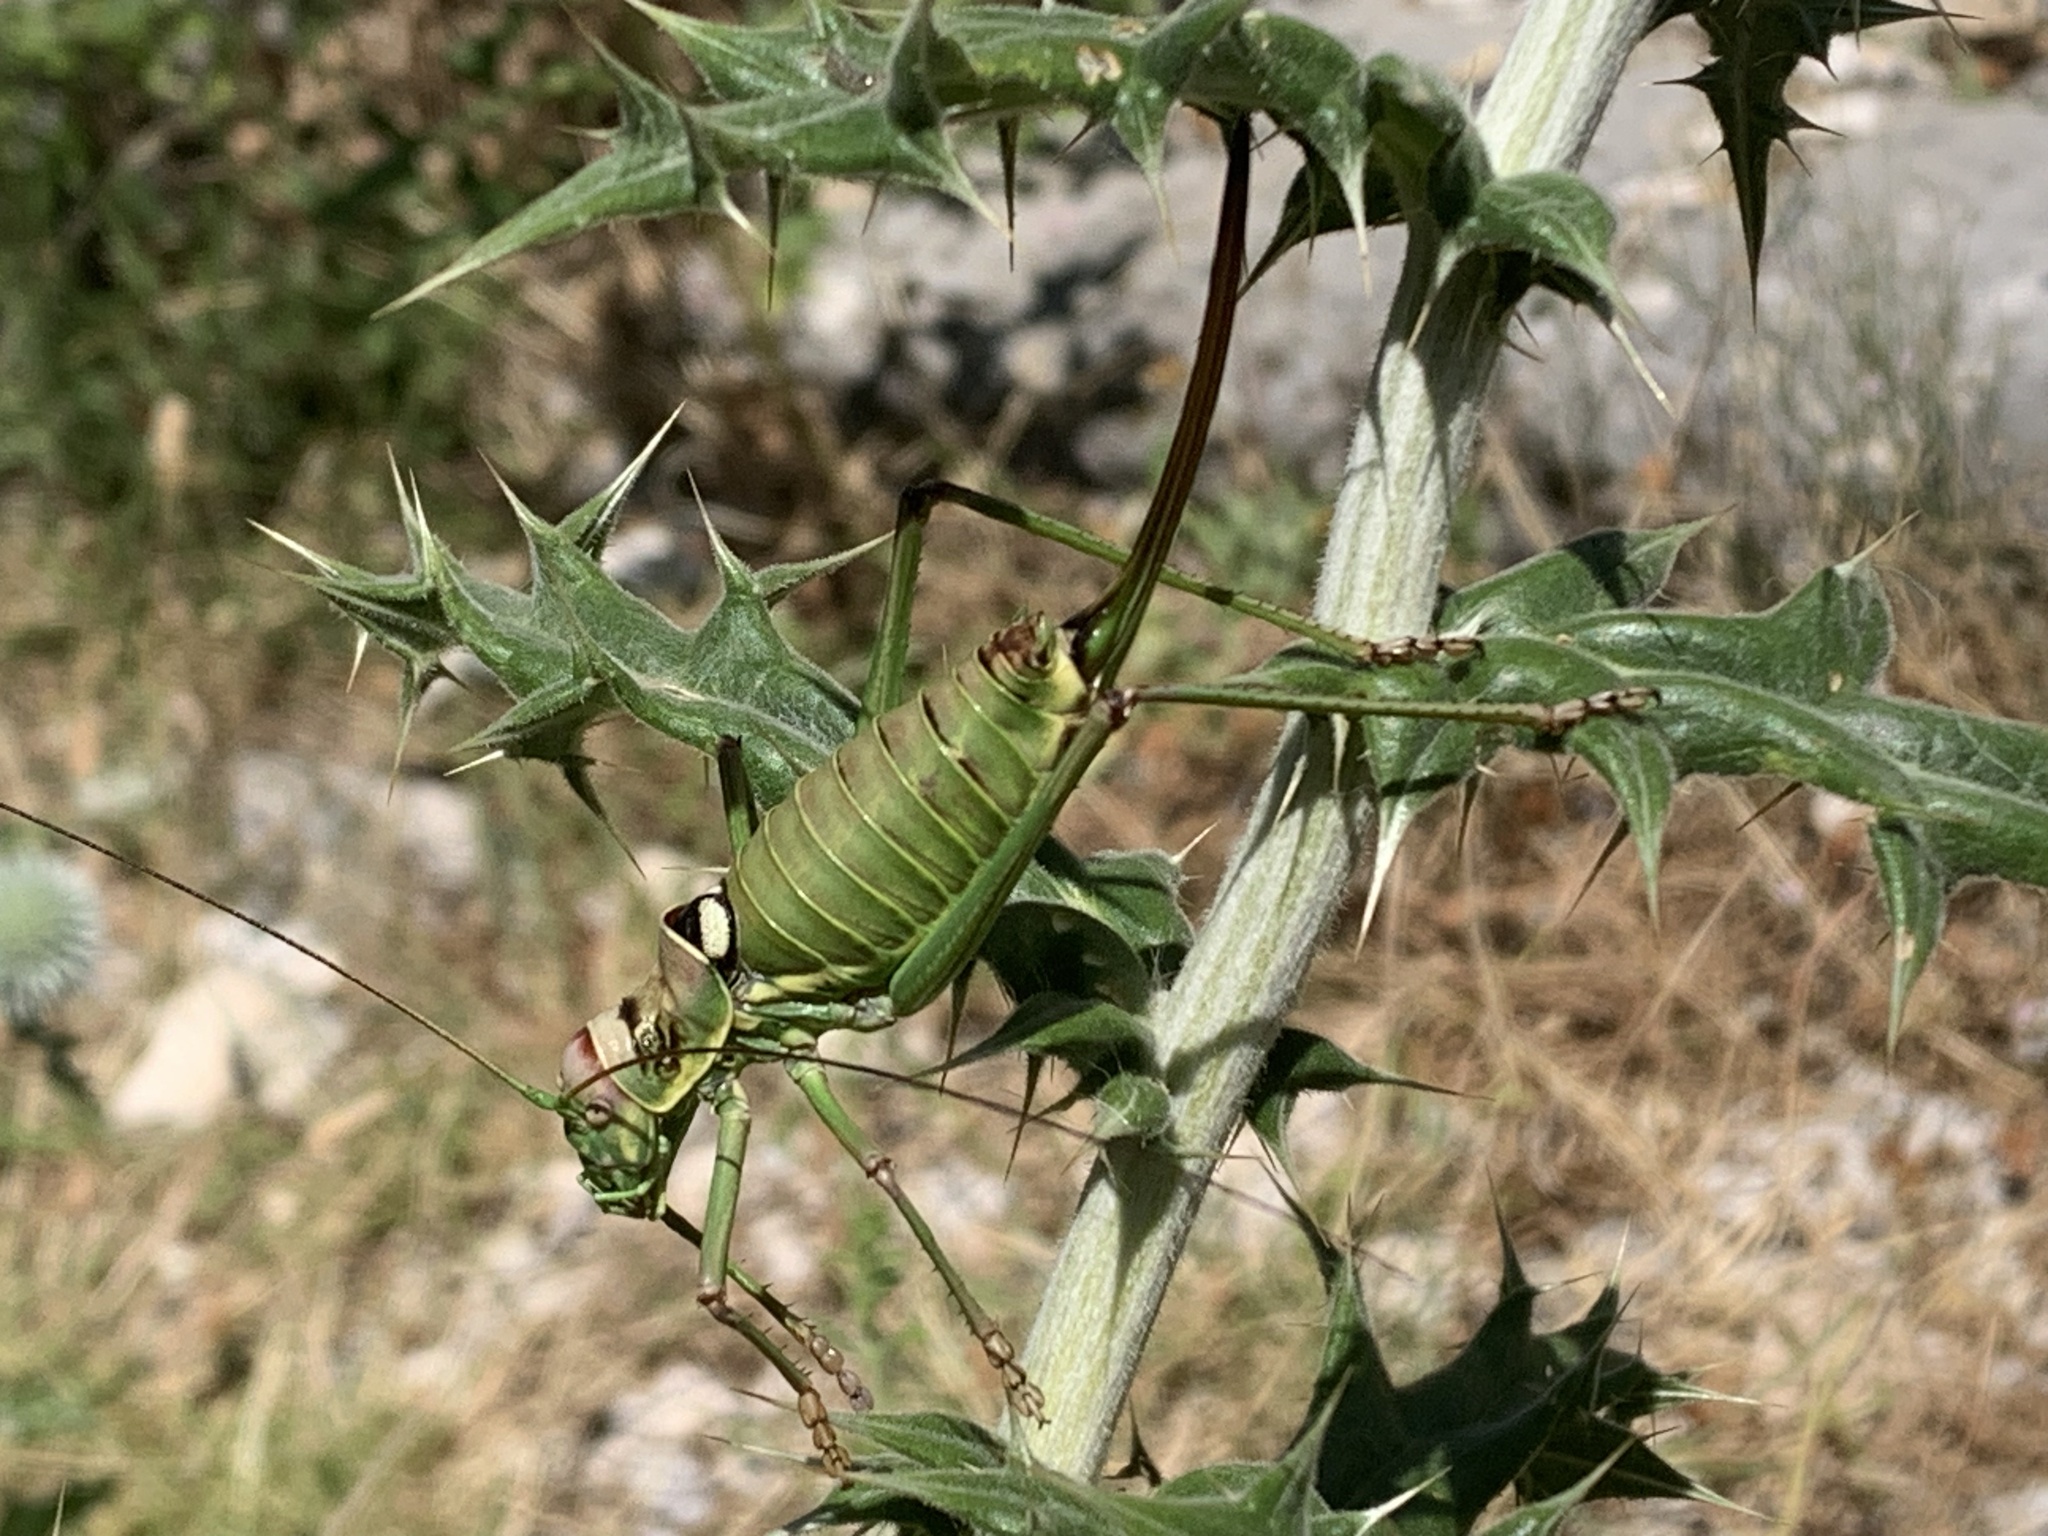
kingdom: Animalia
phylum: Arthropoda
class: Insecta
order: Orthoptera
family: Tettigoniidae
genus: Dinarippiger
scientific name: Dinarippiger discoidalis
